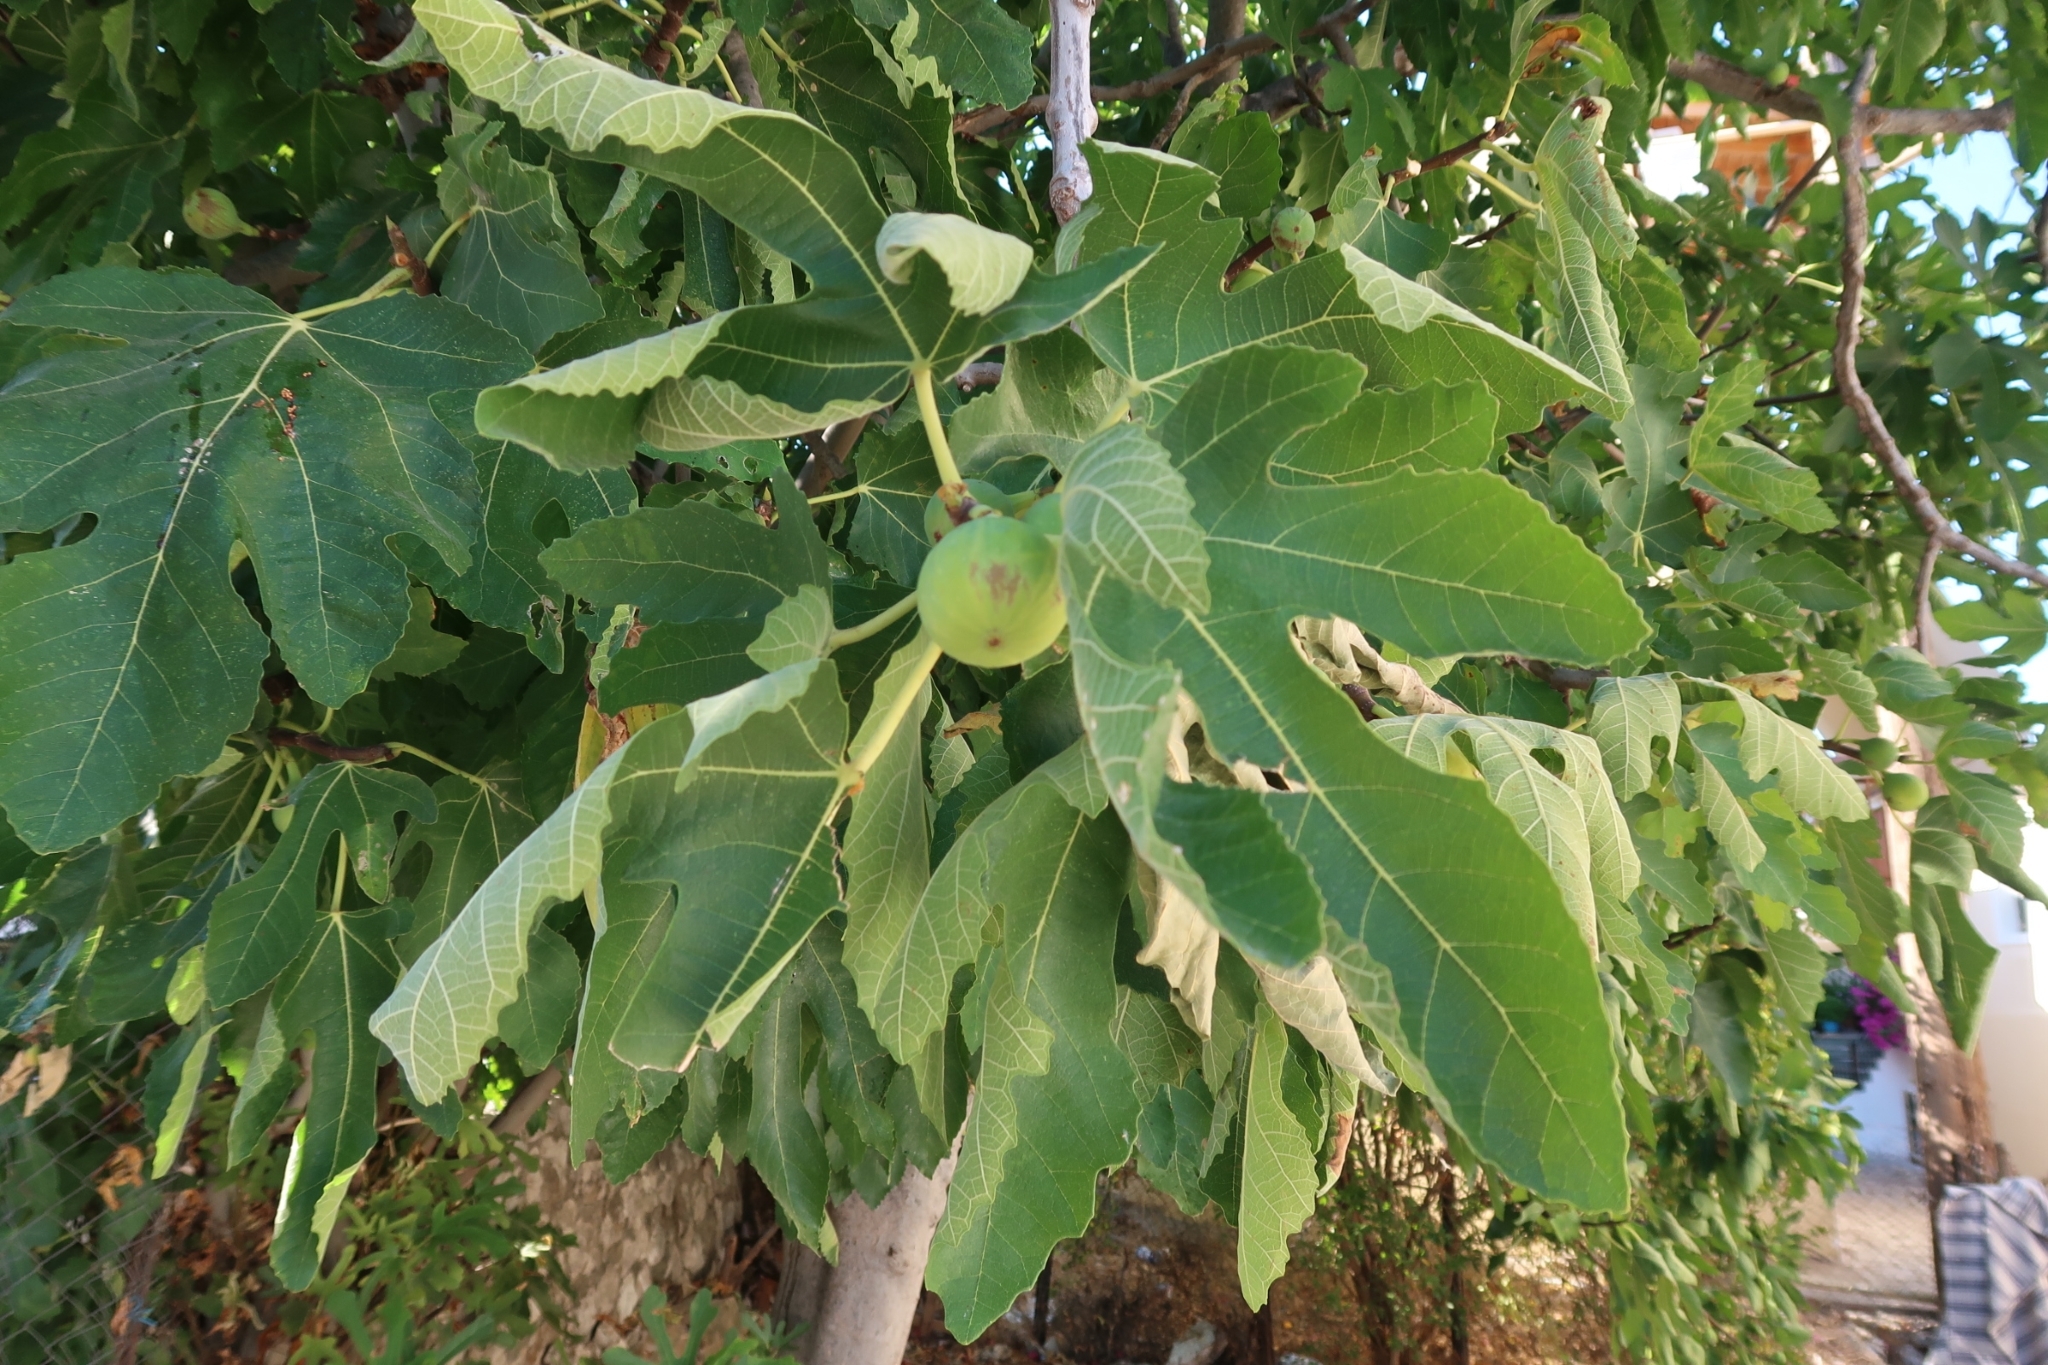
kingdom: Plantae
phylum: Tracheophyta
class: Magnoliopsida
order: Rosales
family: Moraceae
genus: Ficus
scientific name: Ficus carica
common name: Fig
